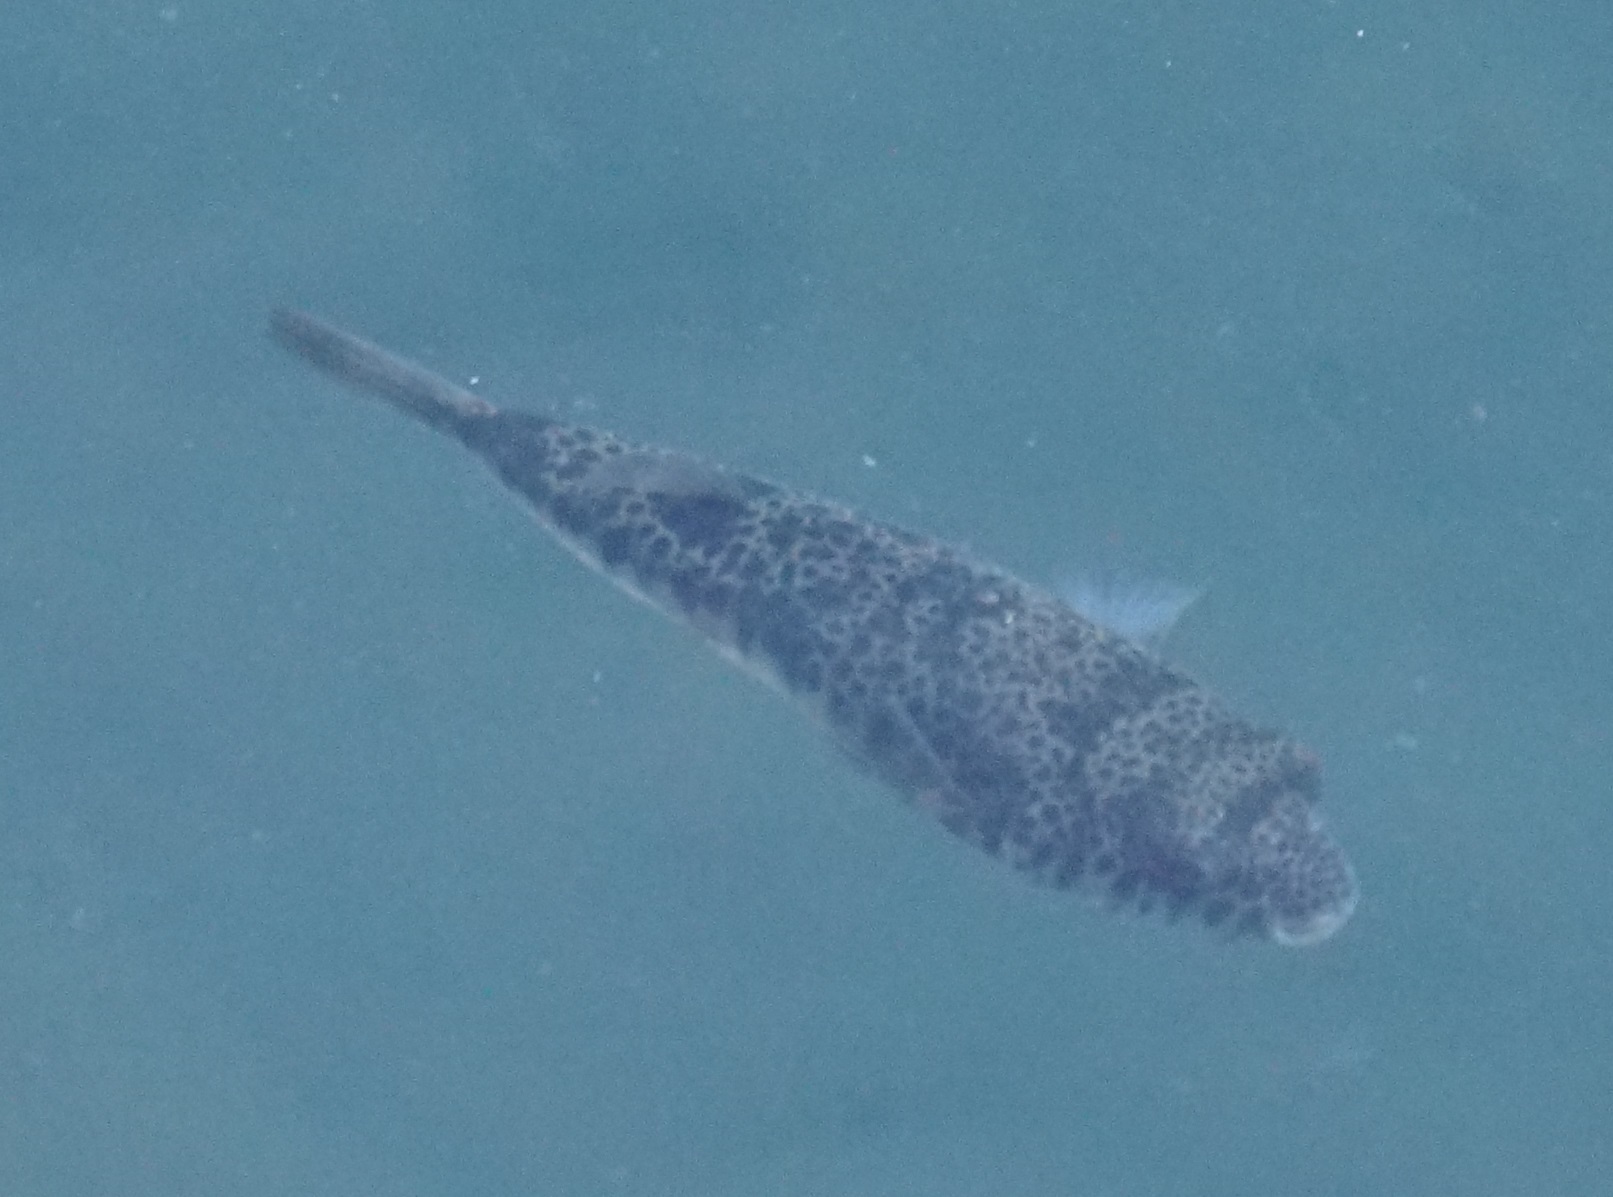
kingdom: Animalia
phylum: Chordata
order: Tetraodontiformes
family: Tetraodontidae
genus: Tetractenos
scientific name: Tetractenos glaber
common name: Smooth toadfish
